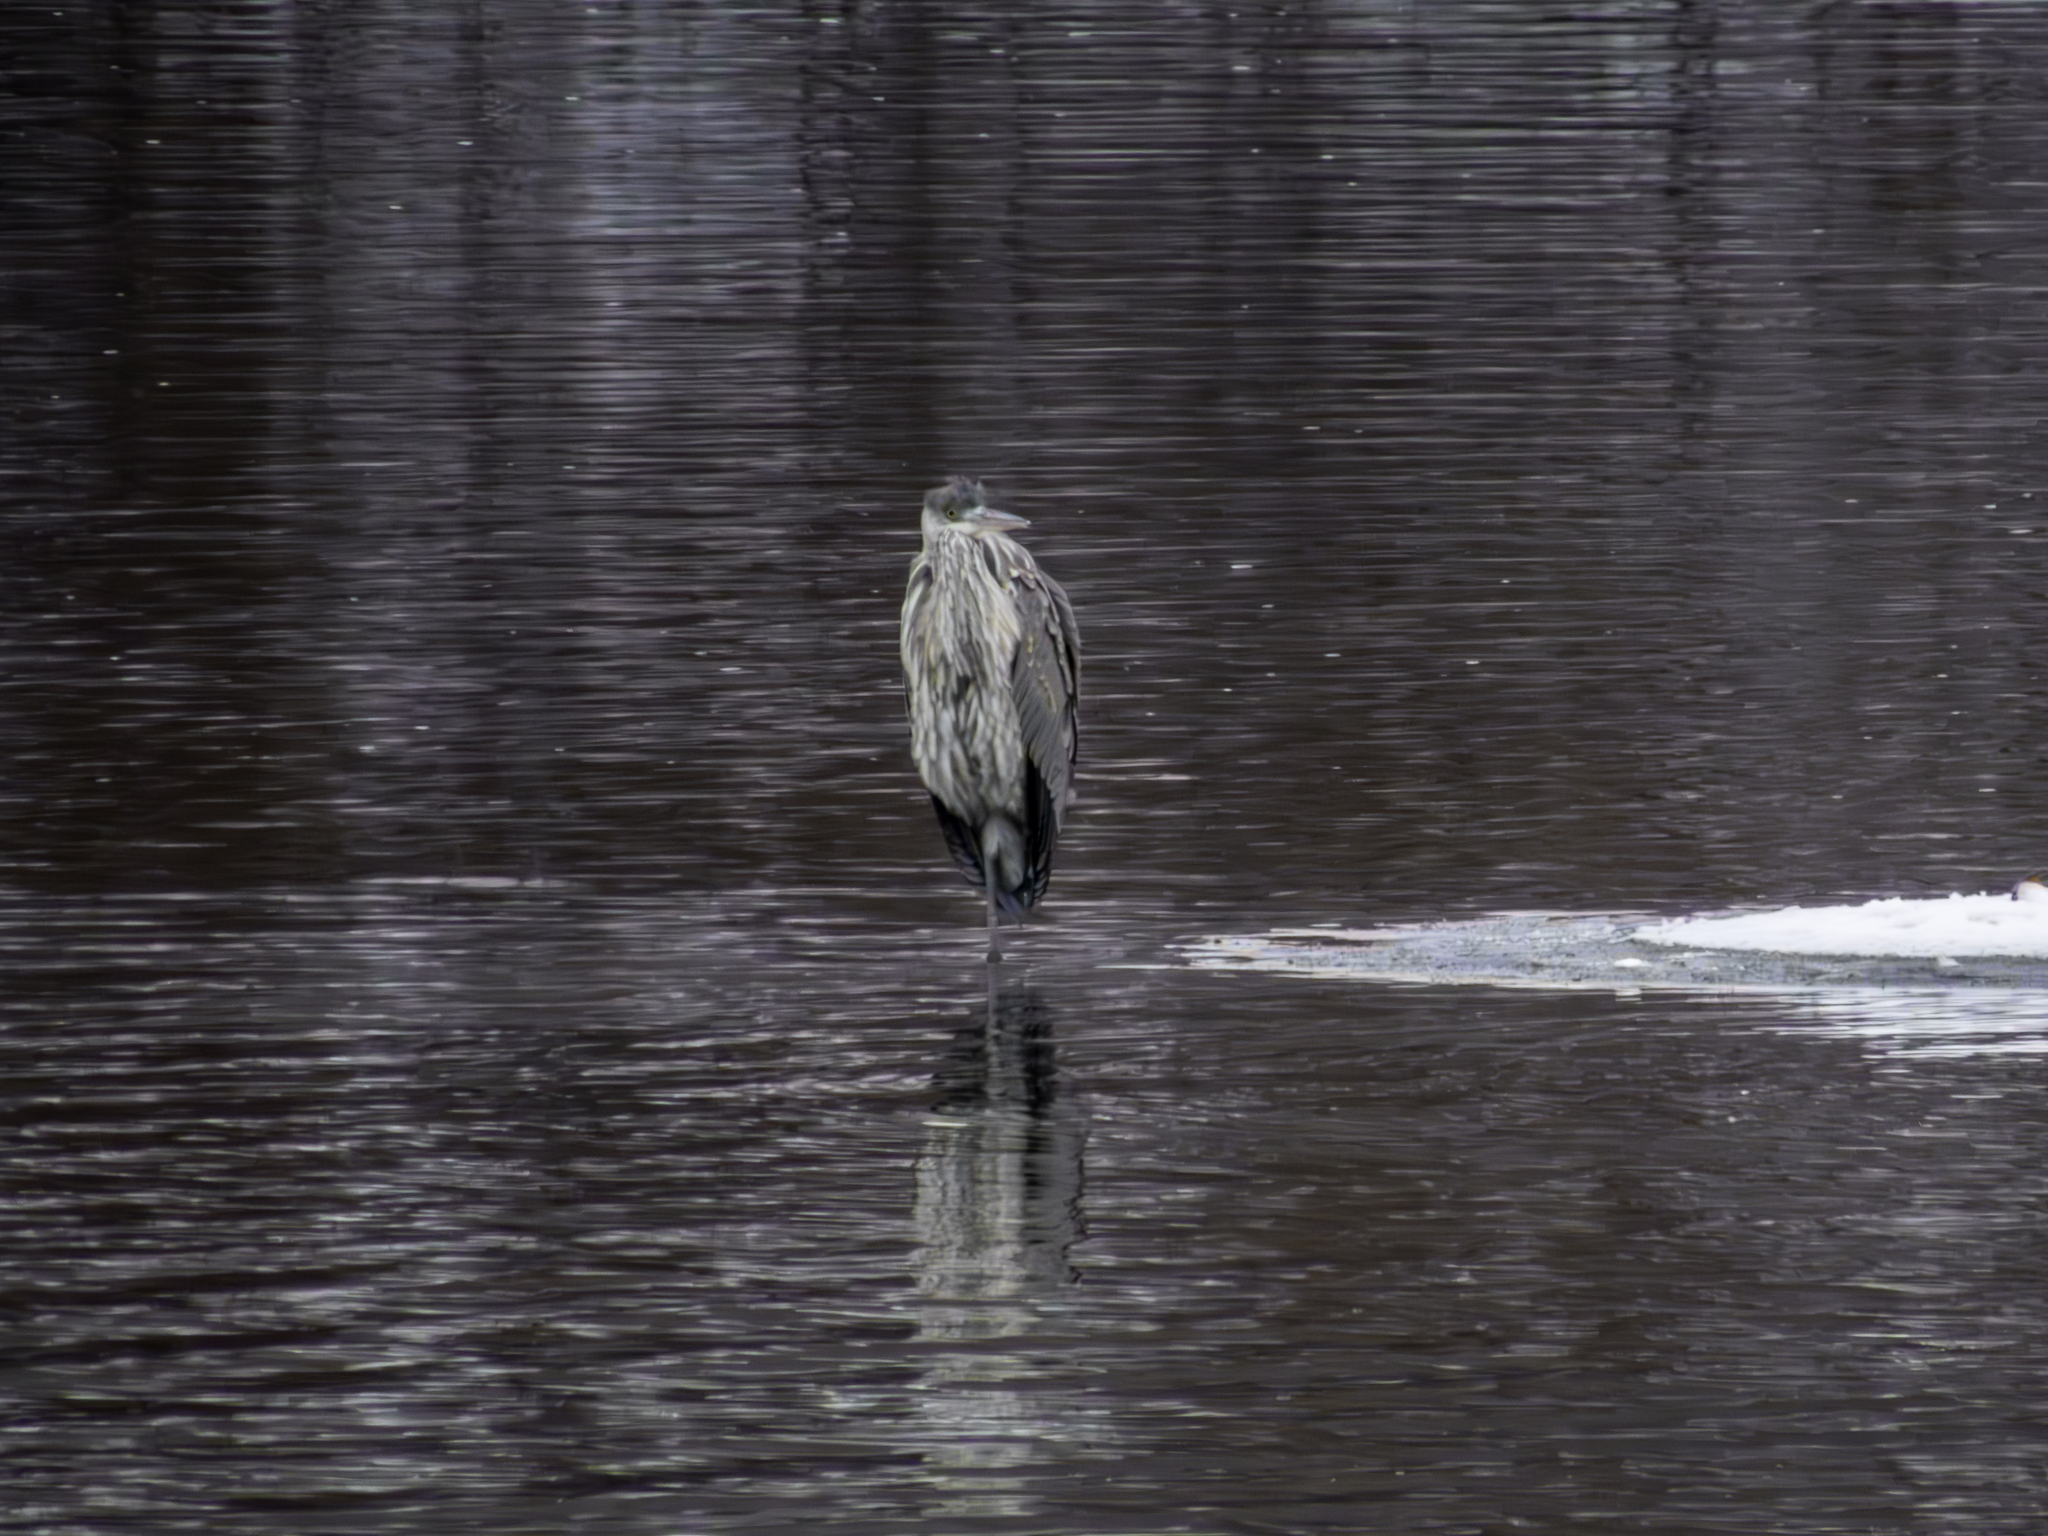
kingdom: Animalia
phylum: Chordata
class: Aves
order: Pelecaniformes
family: Ardeidae
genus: Ardea
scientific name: Ardea herodias
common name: Great blue heron
